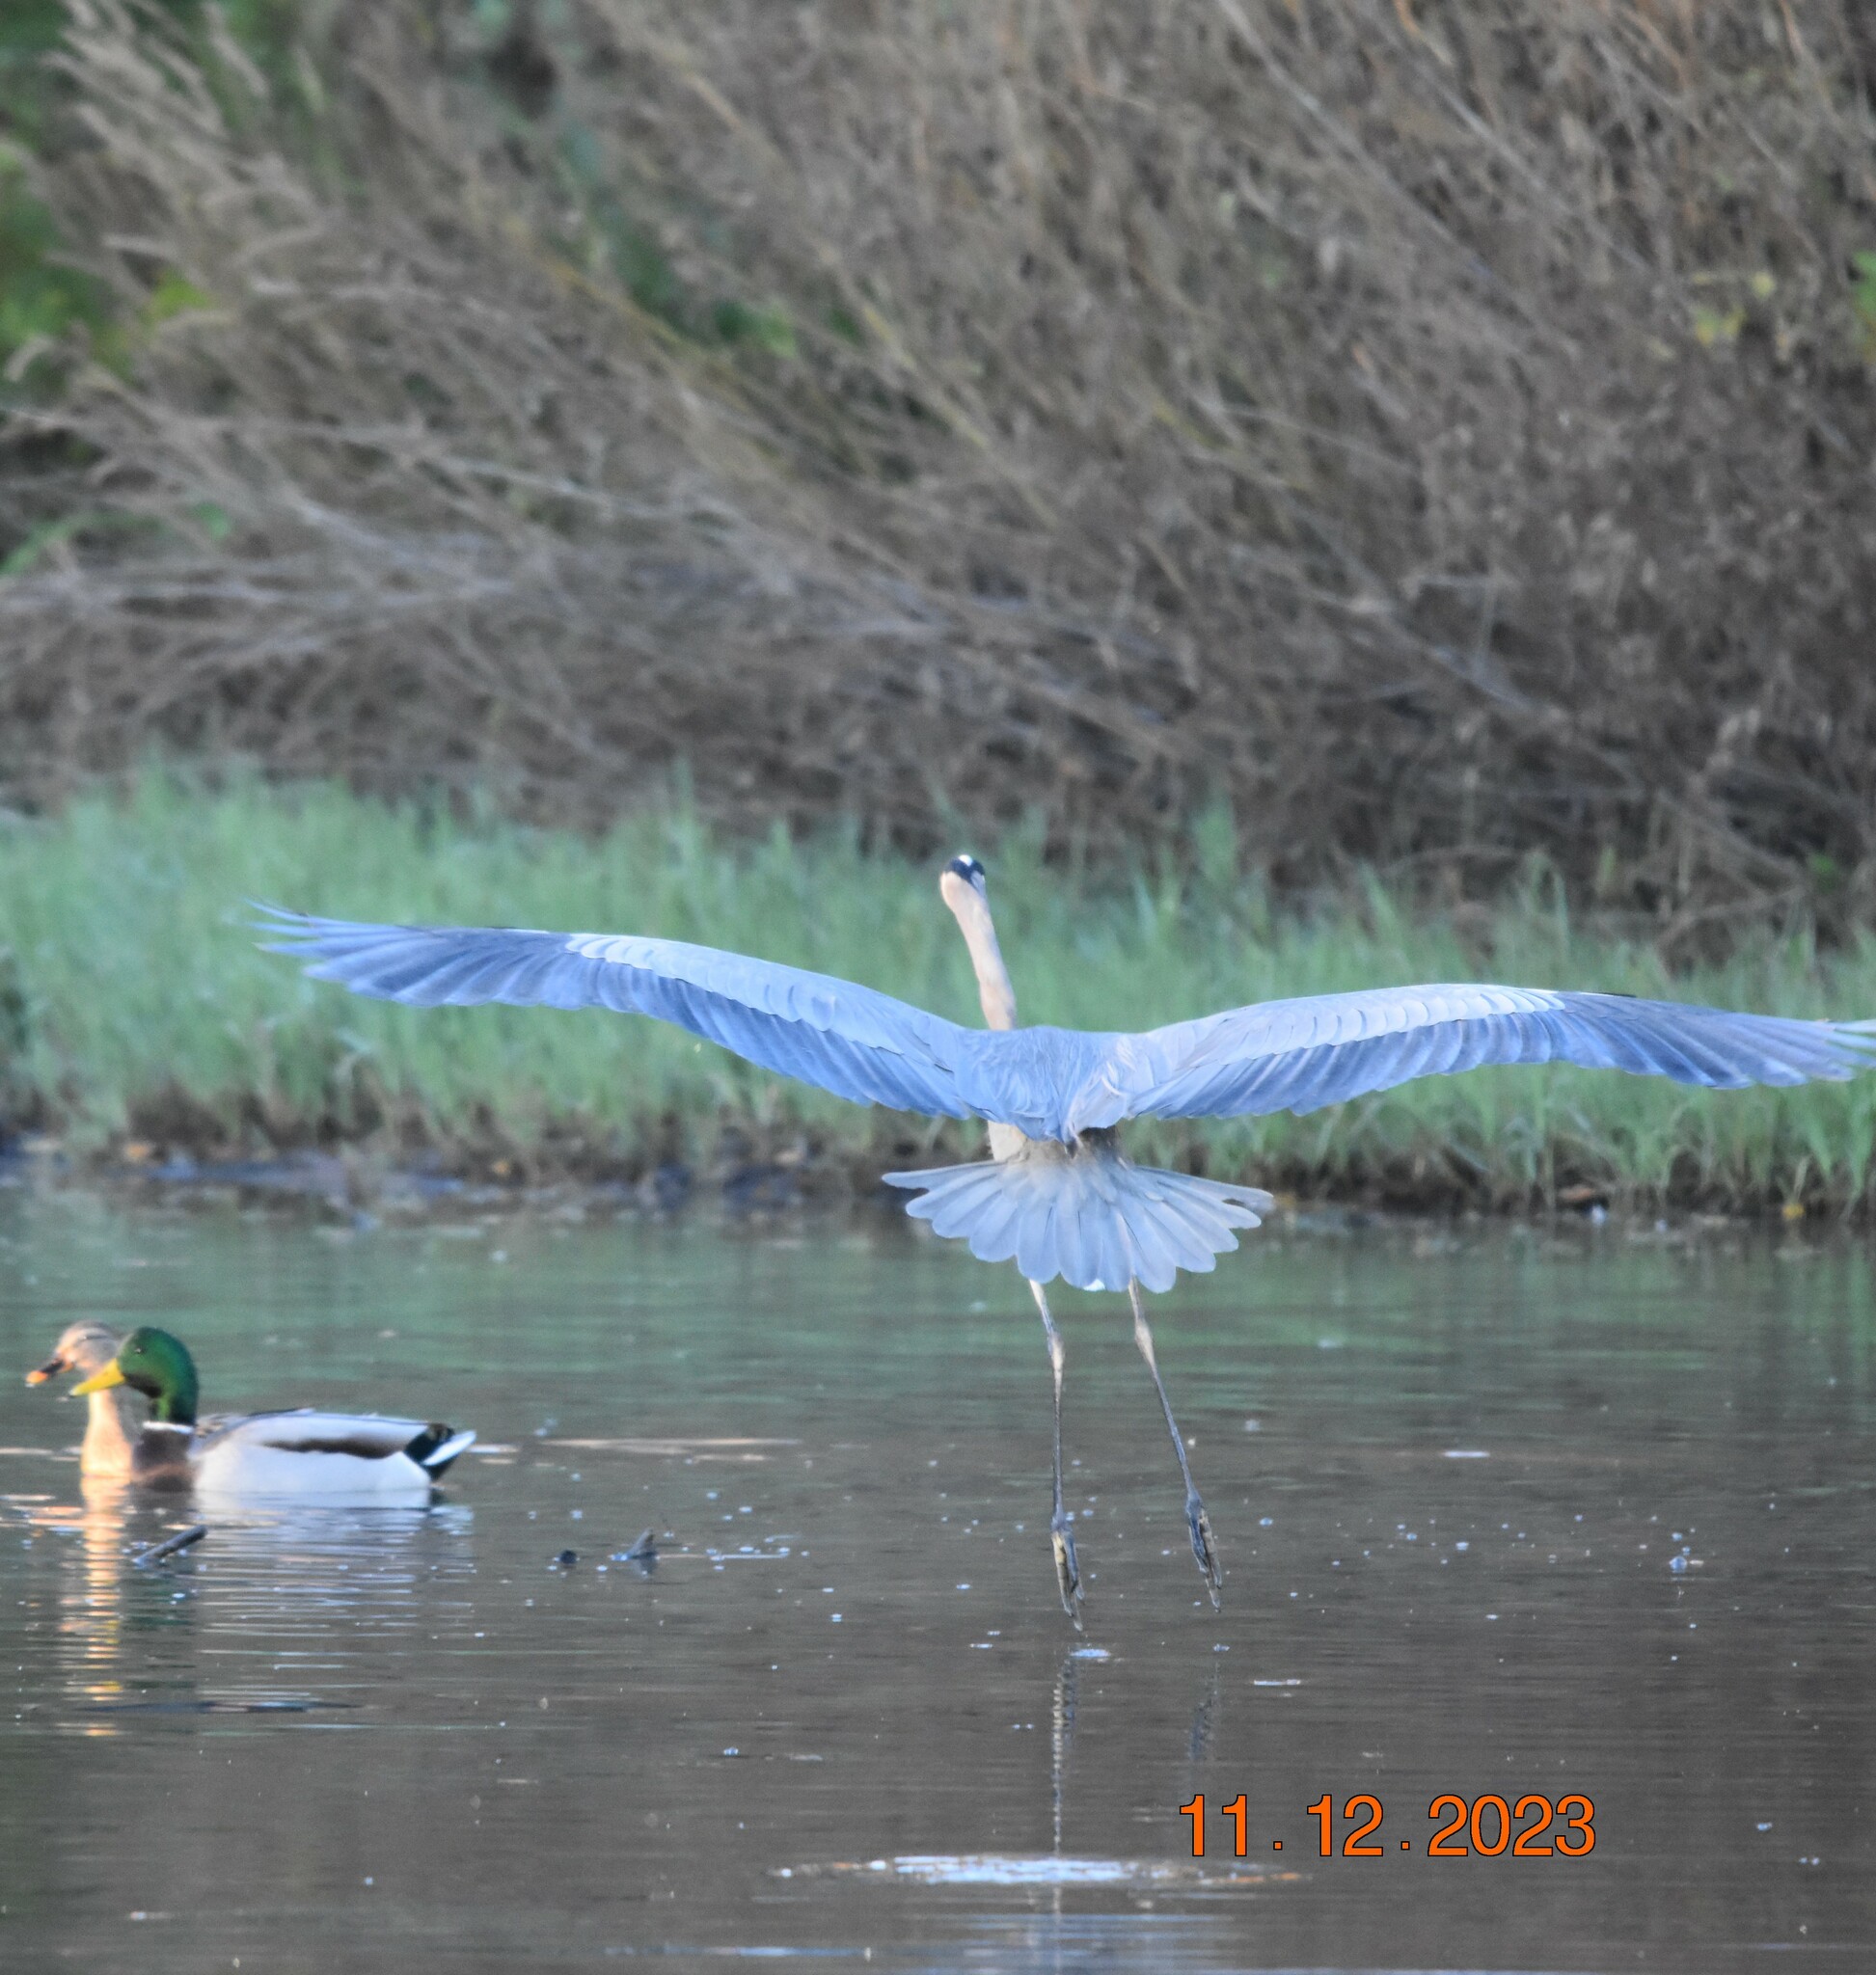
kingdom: Animalia
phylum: Chordata
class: Aves
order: Pelecaniformes
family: Ardeidae
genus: Ardea
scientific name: Ardea herodias
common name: Great blue heron
